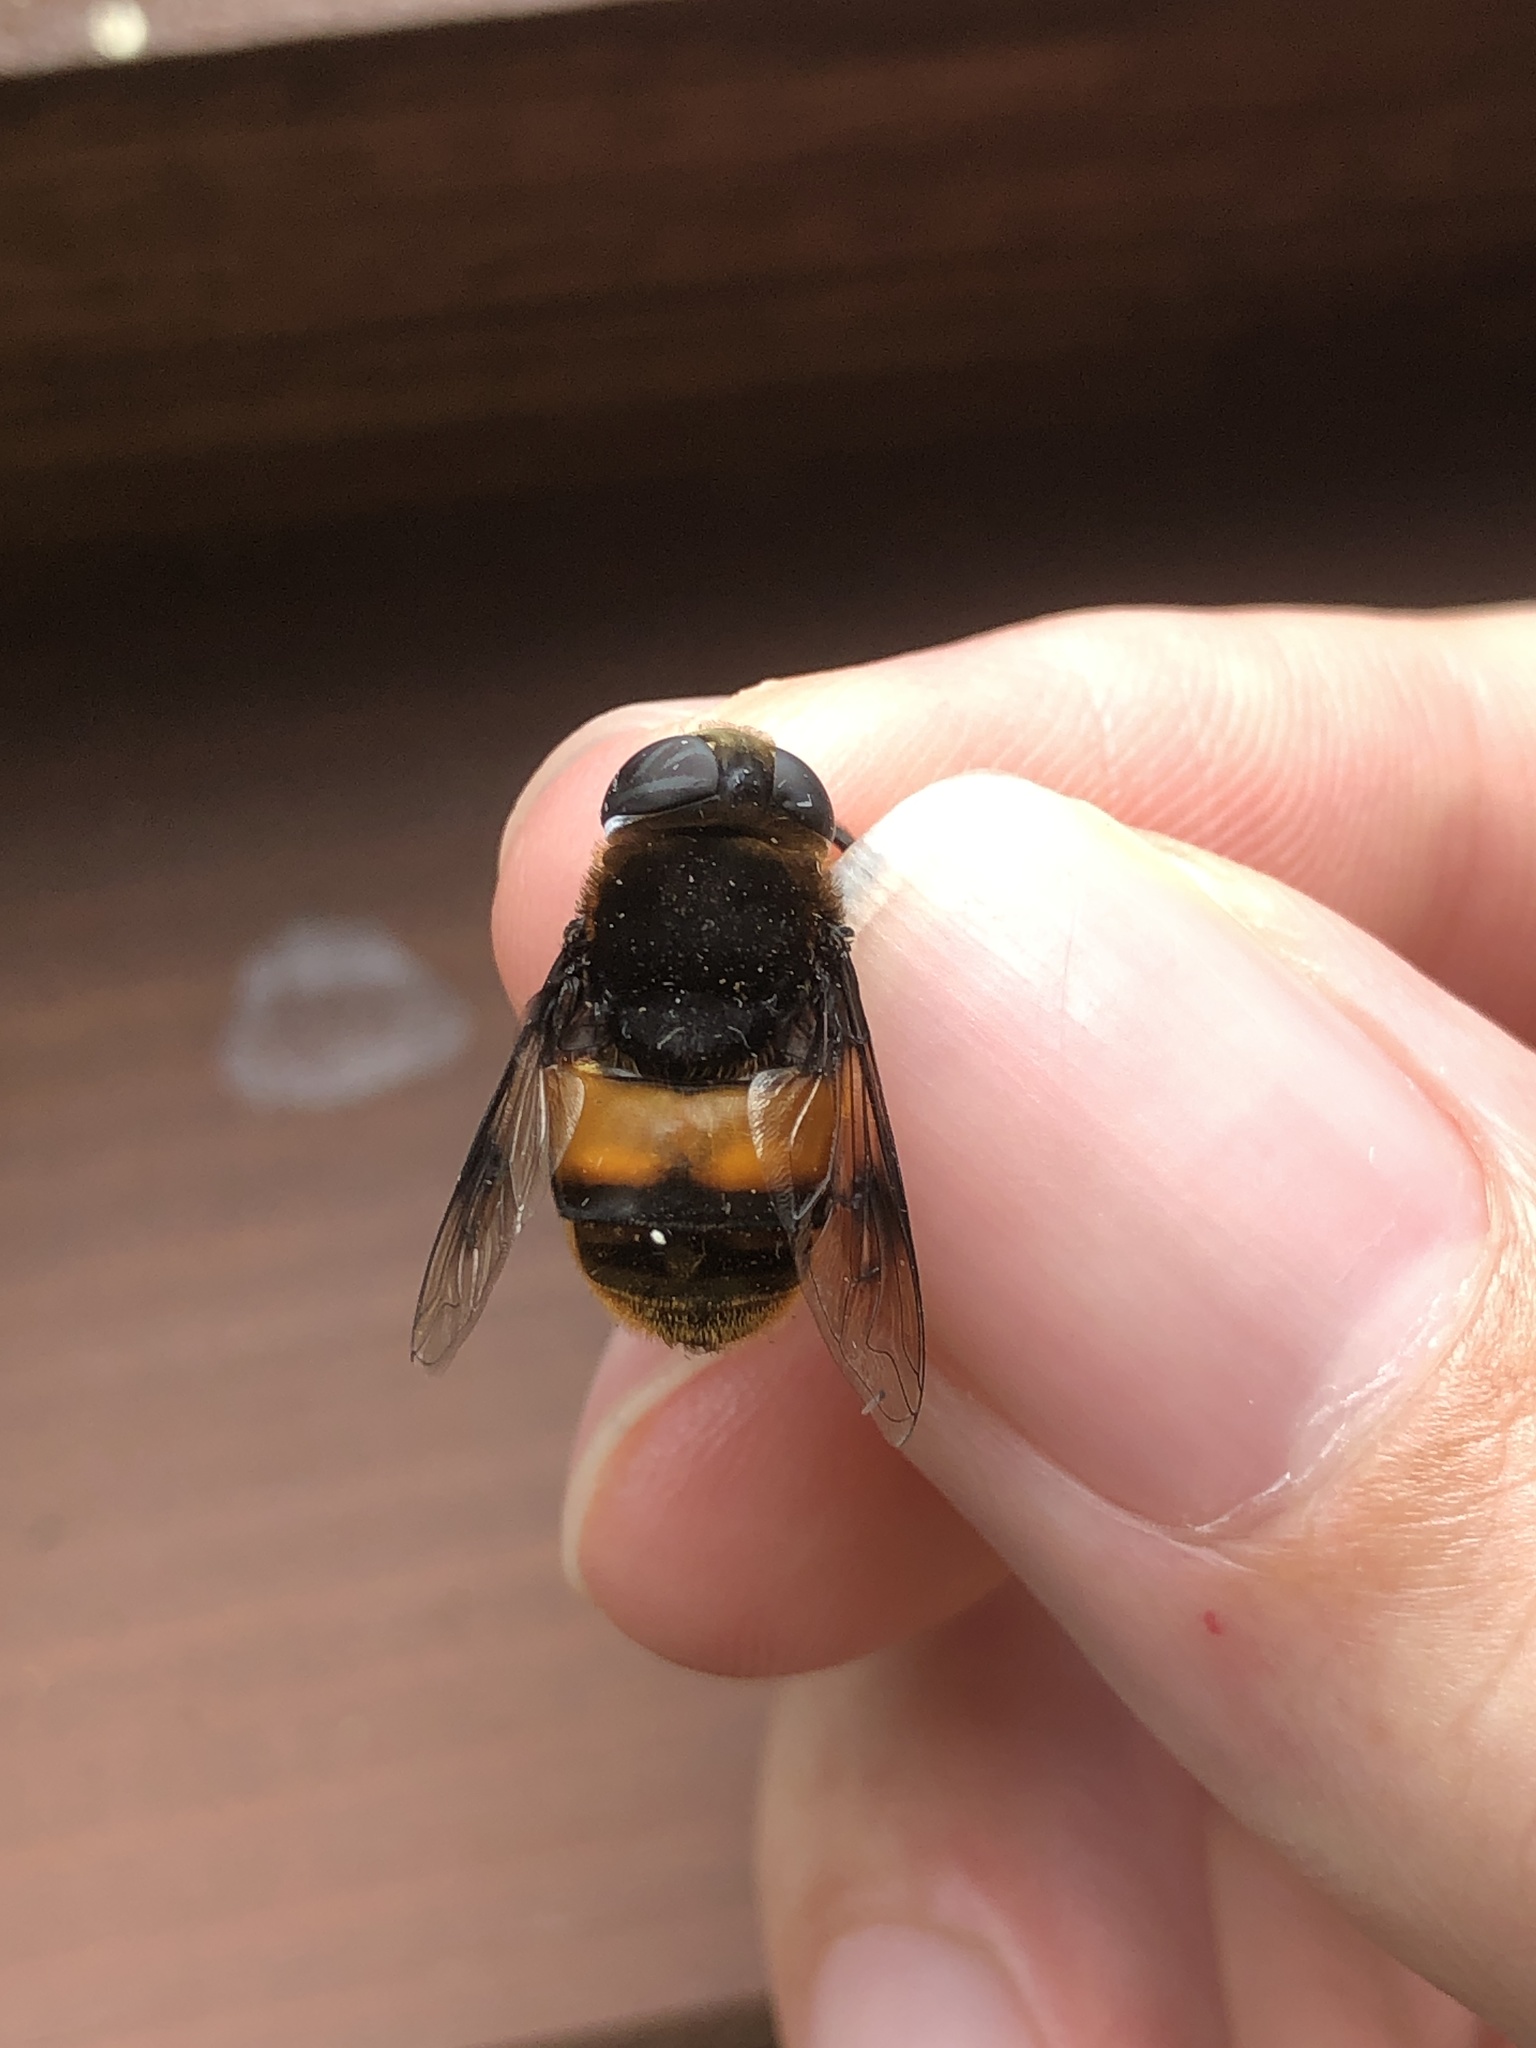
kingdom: Animalia
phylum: Arthropoda
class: Insecta
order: Diptera
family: Syrphidae
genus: Phytomia
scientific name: Phytomia zonata
